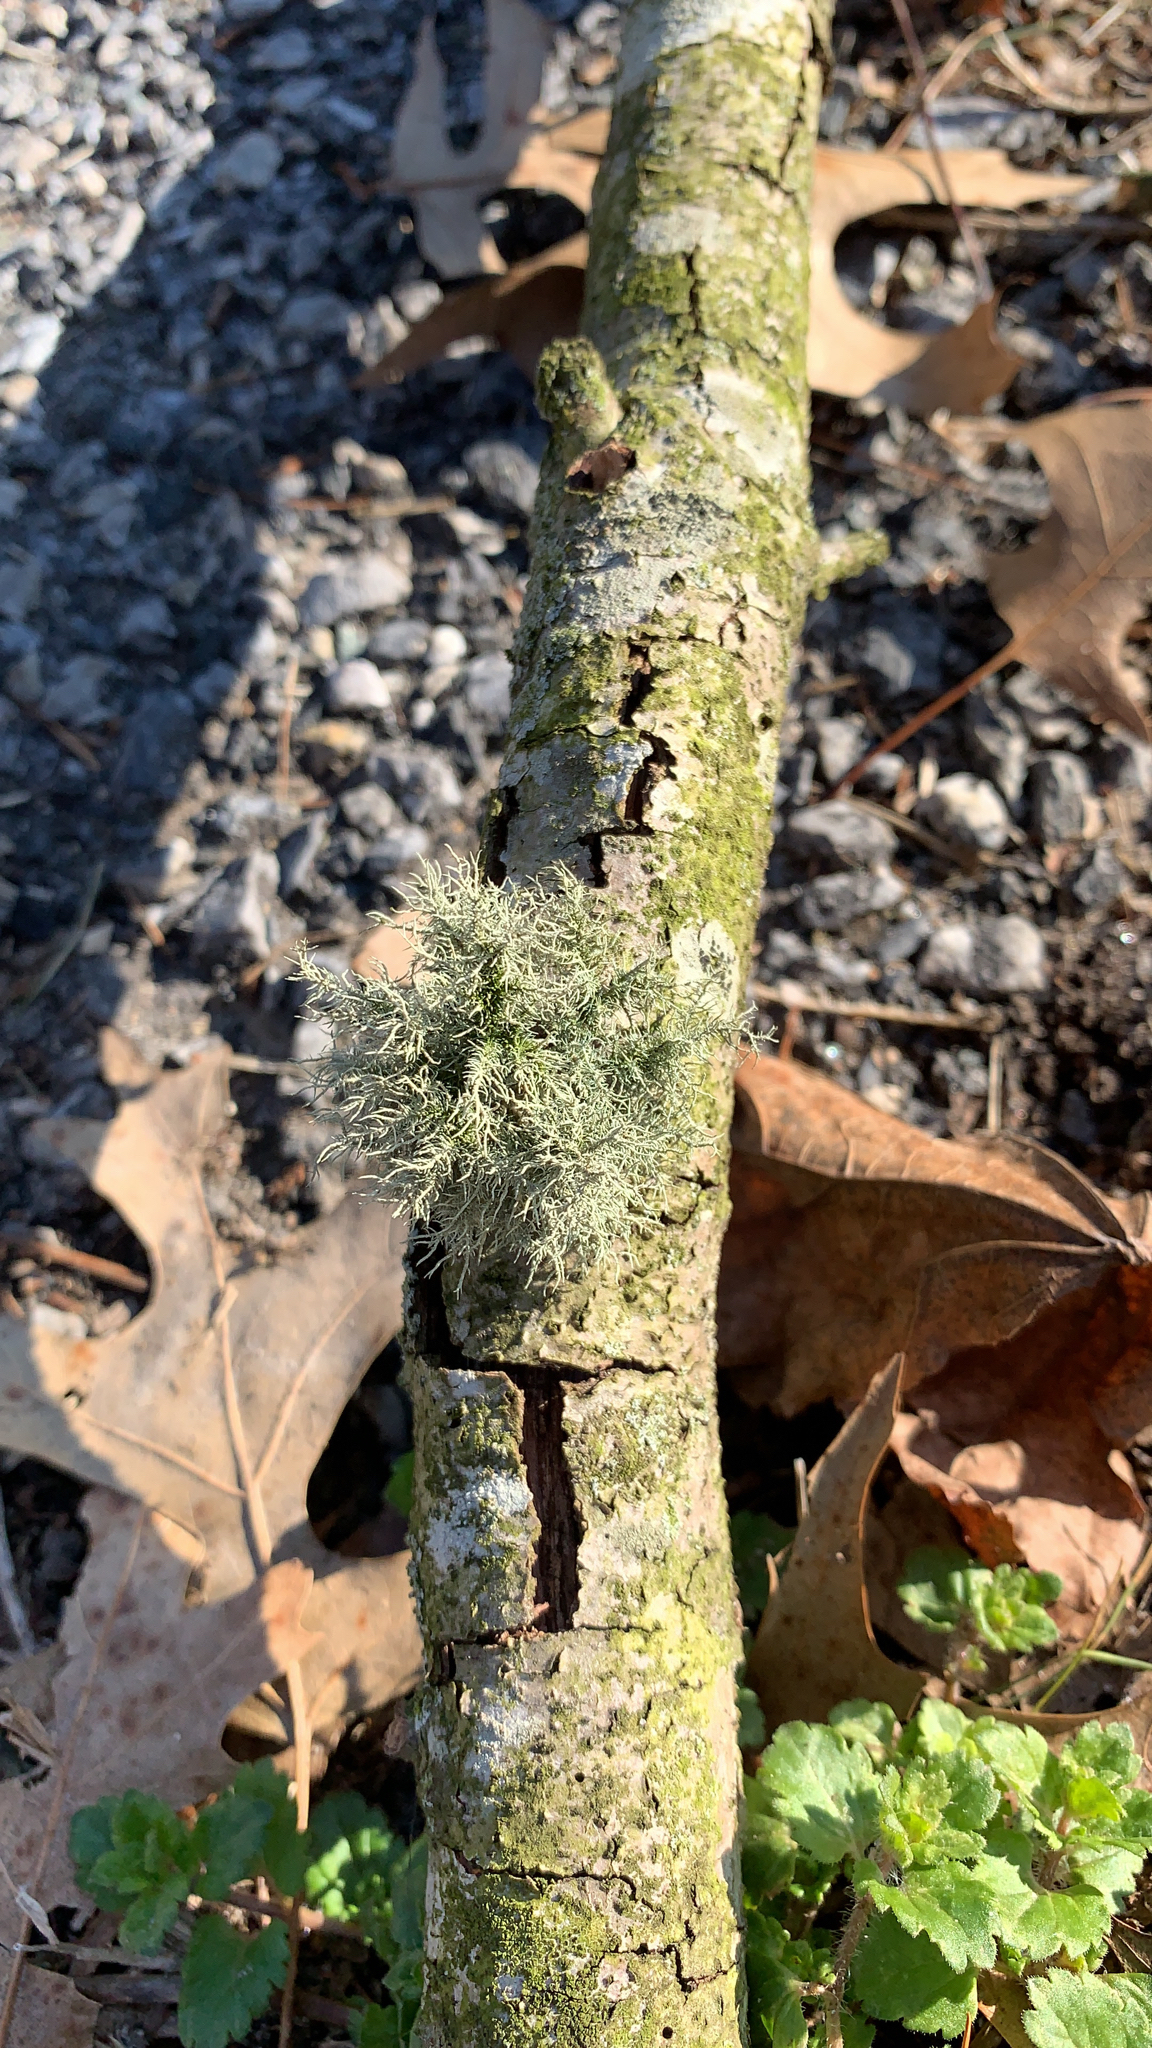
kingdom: Fungi
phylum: Ascomycota
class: Lecanoromycetes
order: Lecanorales
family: Parmeliaceae
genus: Usnea
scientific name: Usnea
